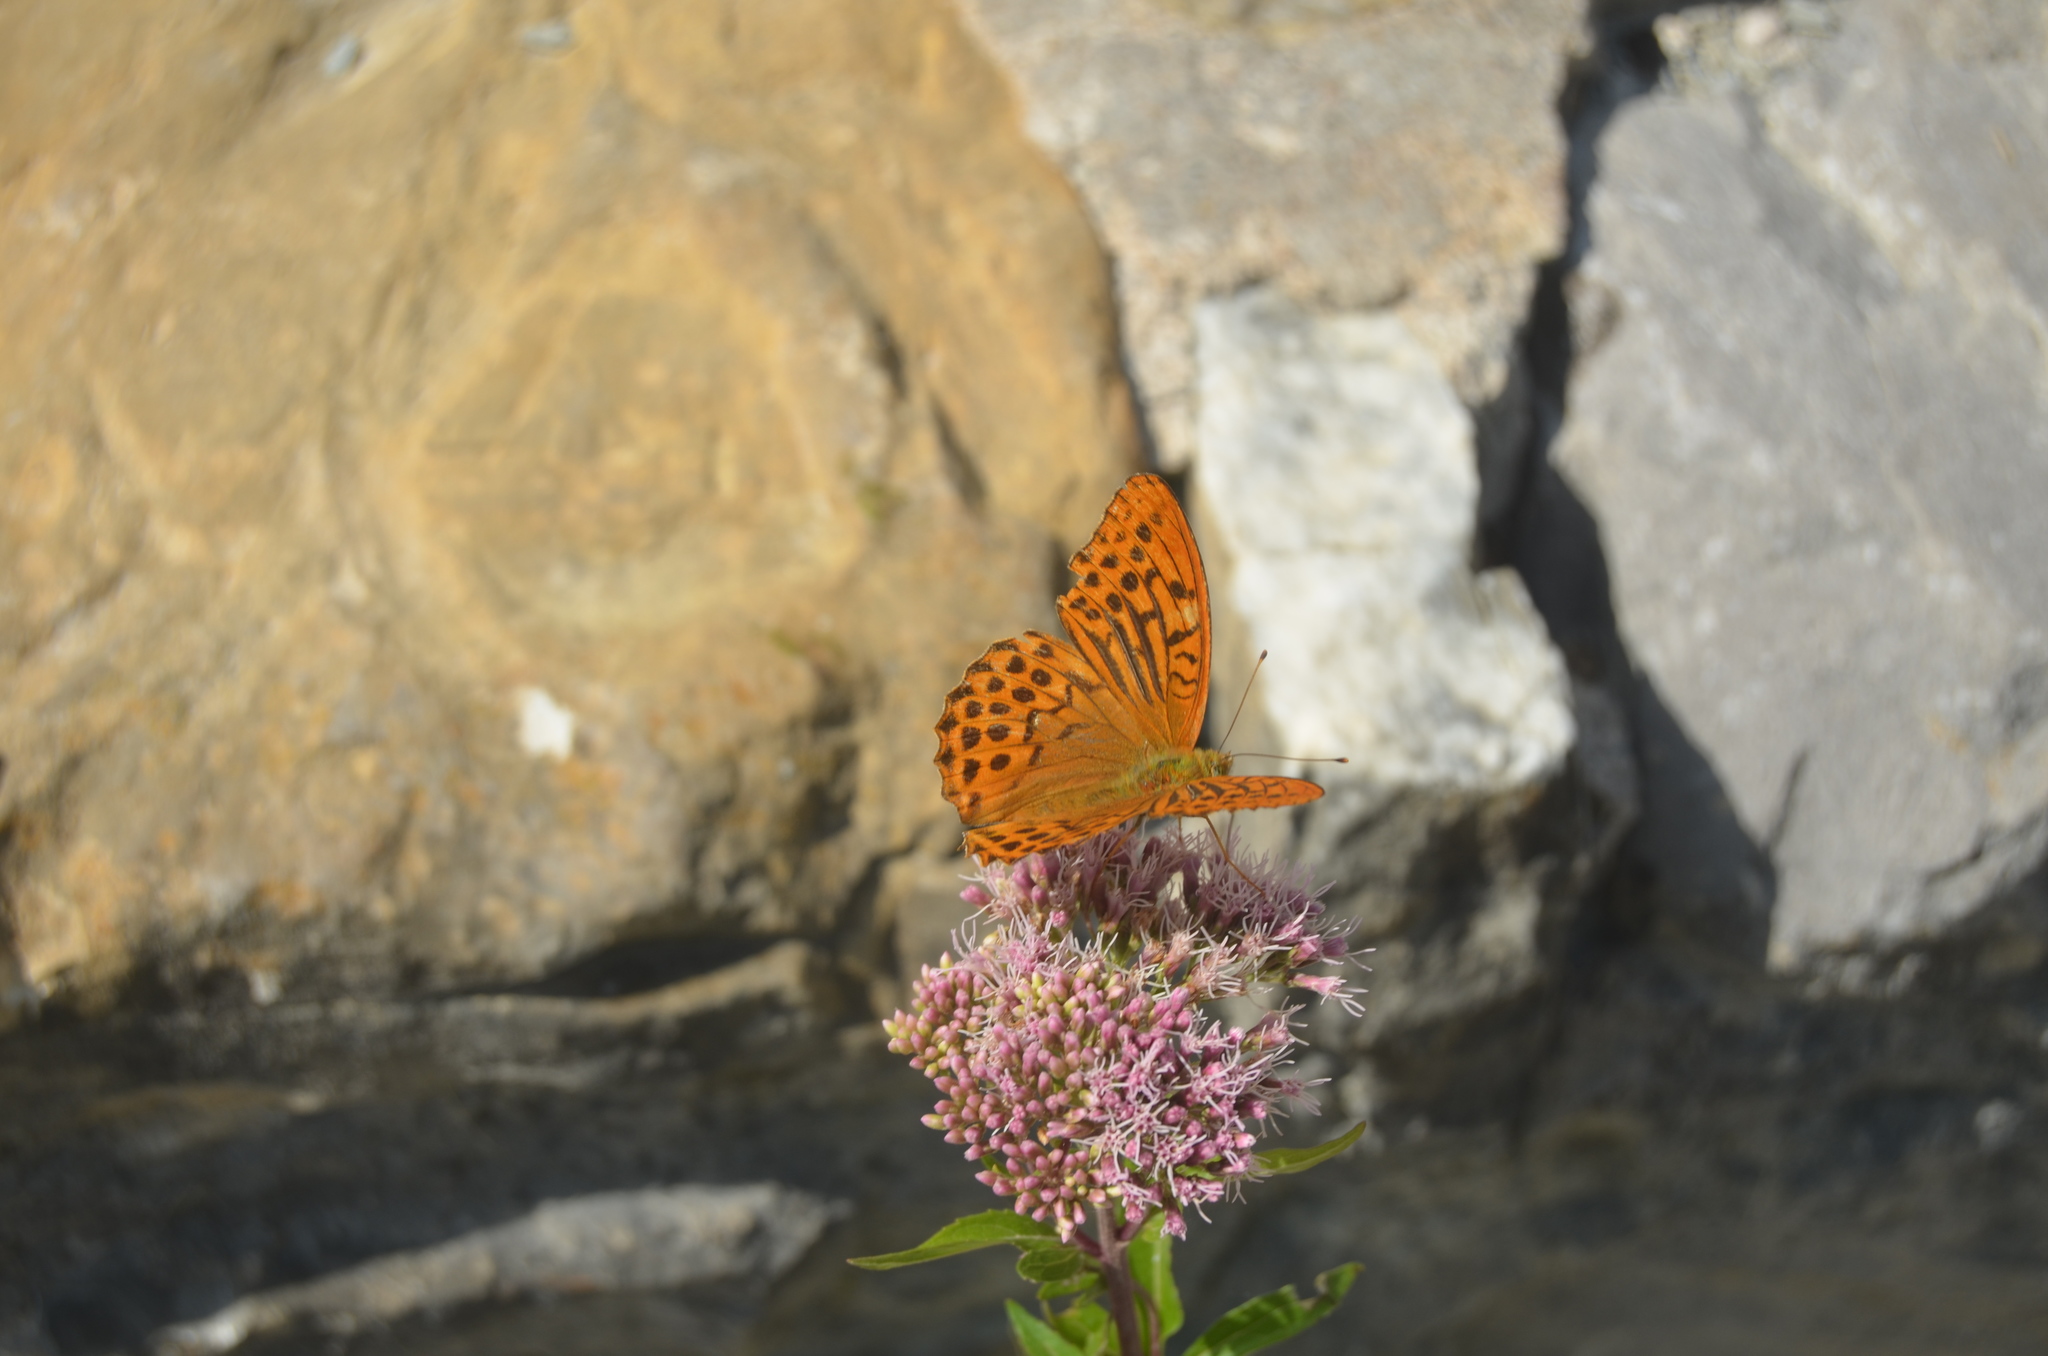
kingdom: Animalia
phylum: Arthropoda
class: Insecta
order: Lepidoptera
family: Nymphalidae
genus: Argynnis
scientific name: Argynnis paphia
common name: Silver-washed fritillary
